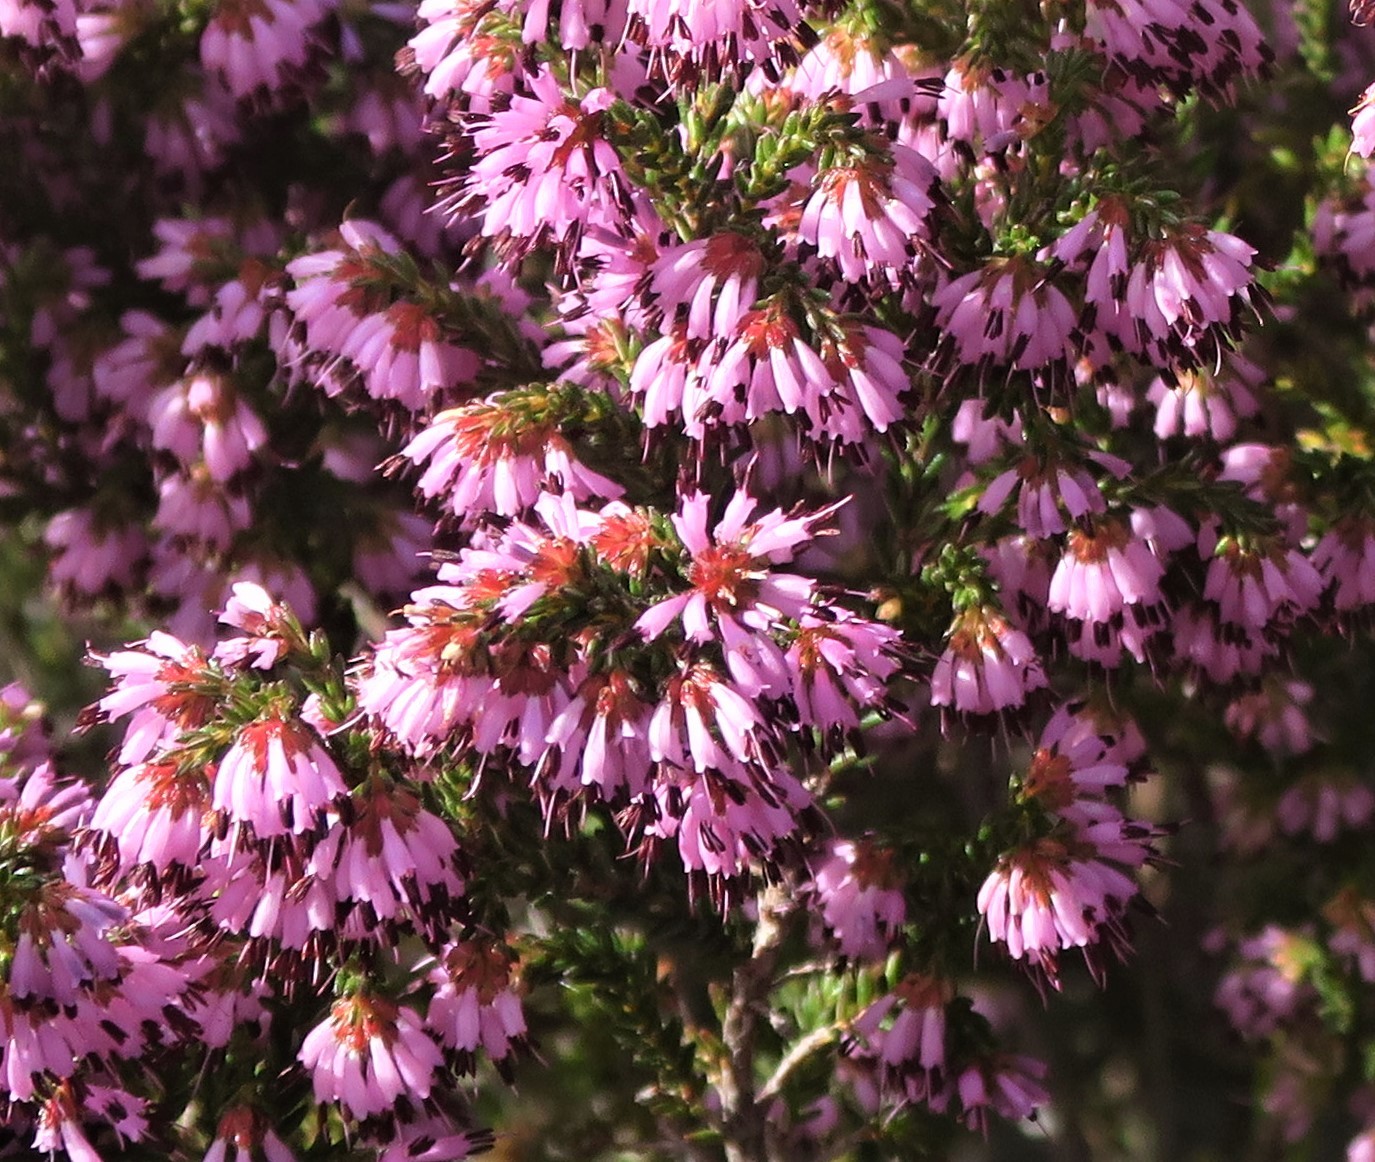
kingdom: Plantae
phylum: Tracheophyta
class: Magnoliopsida
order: Ericales
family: Ericaceae
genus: Erica
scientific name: Erica glabella
